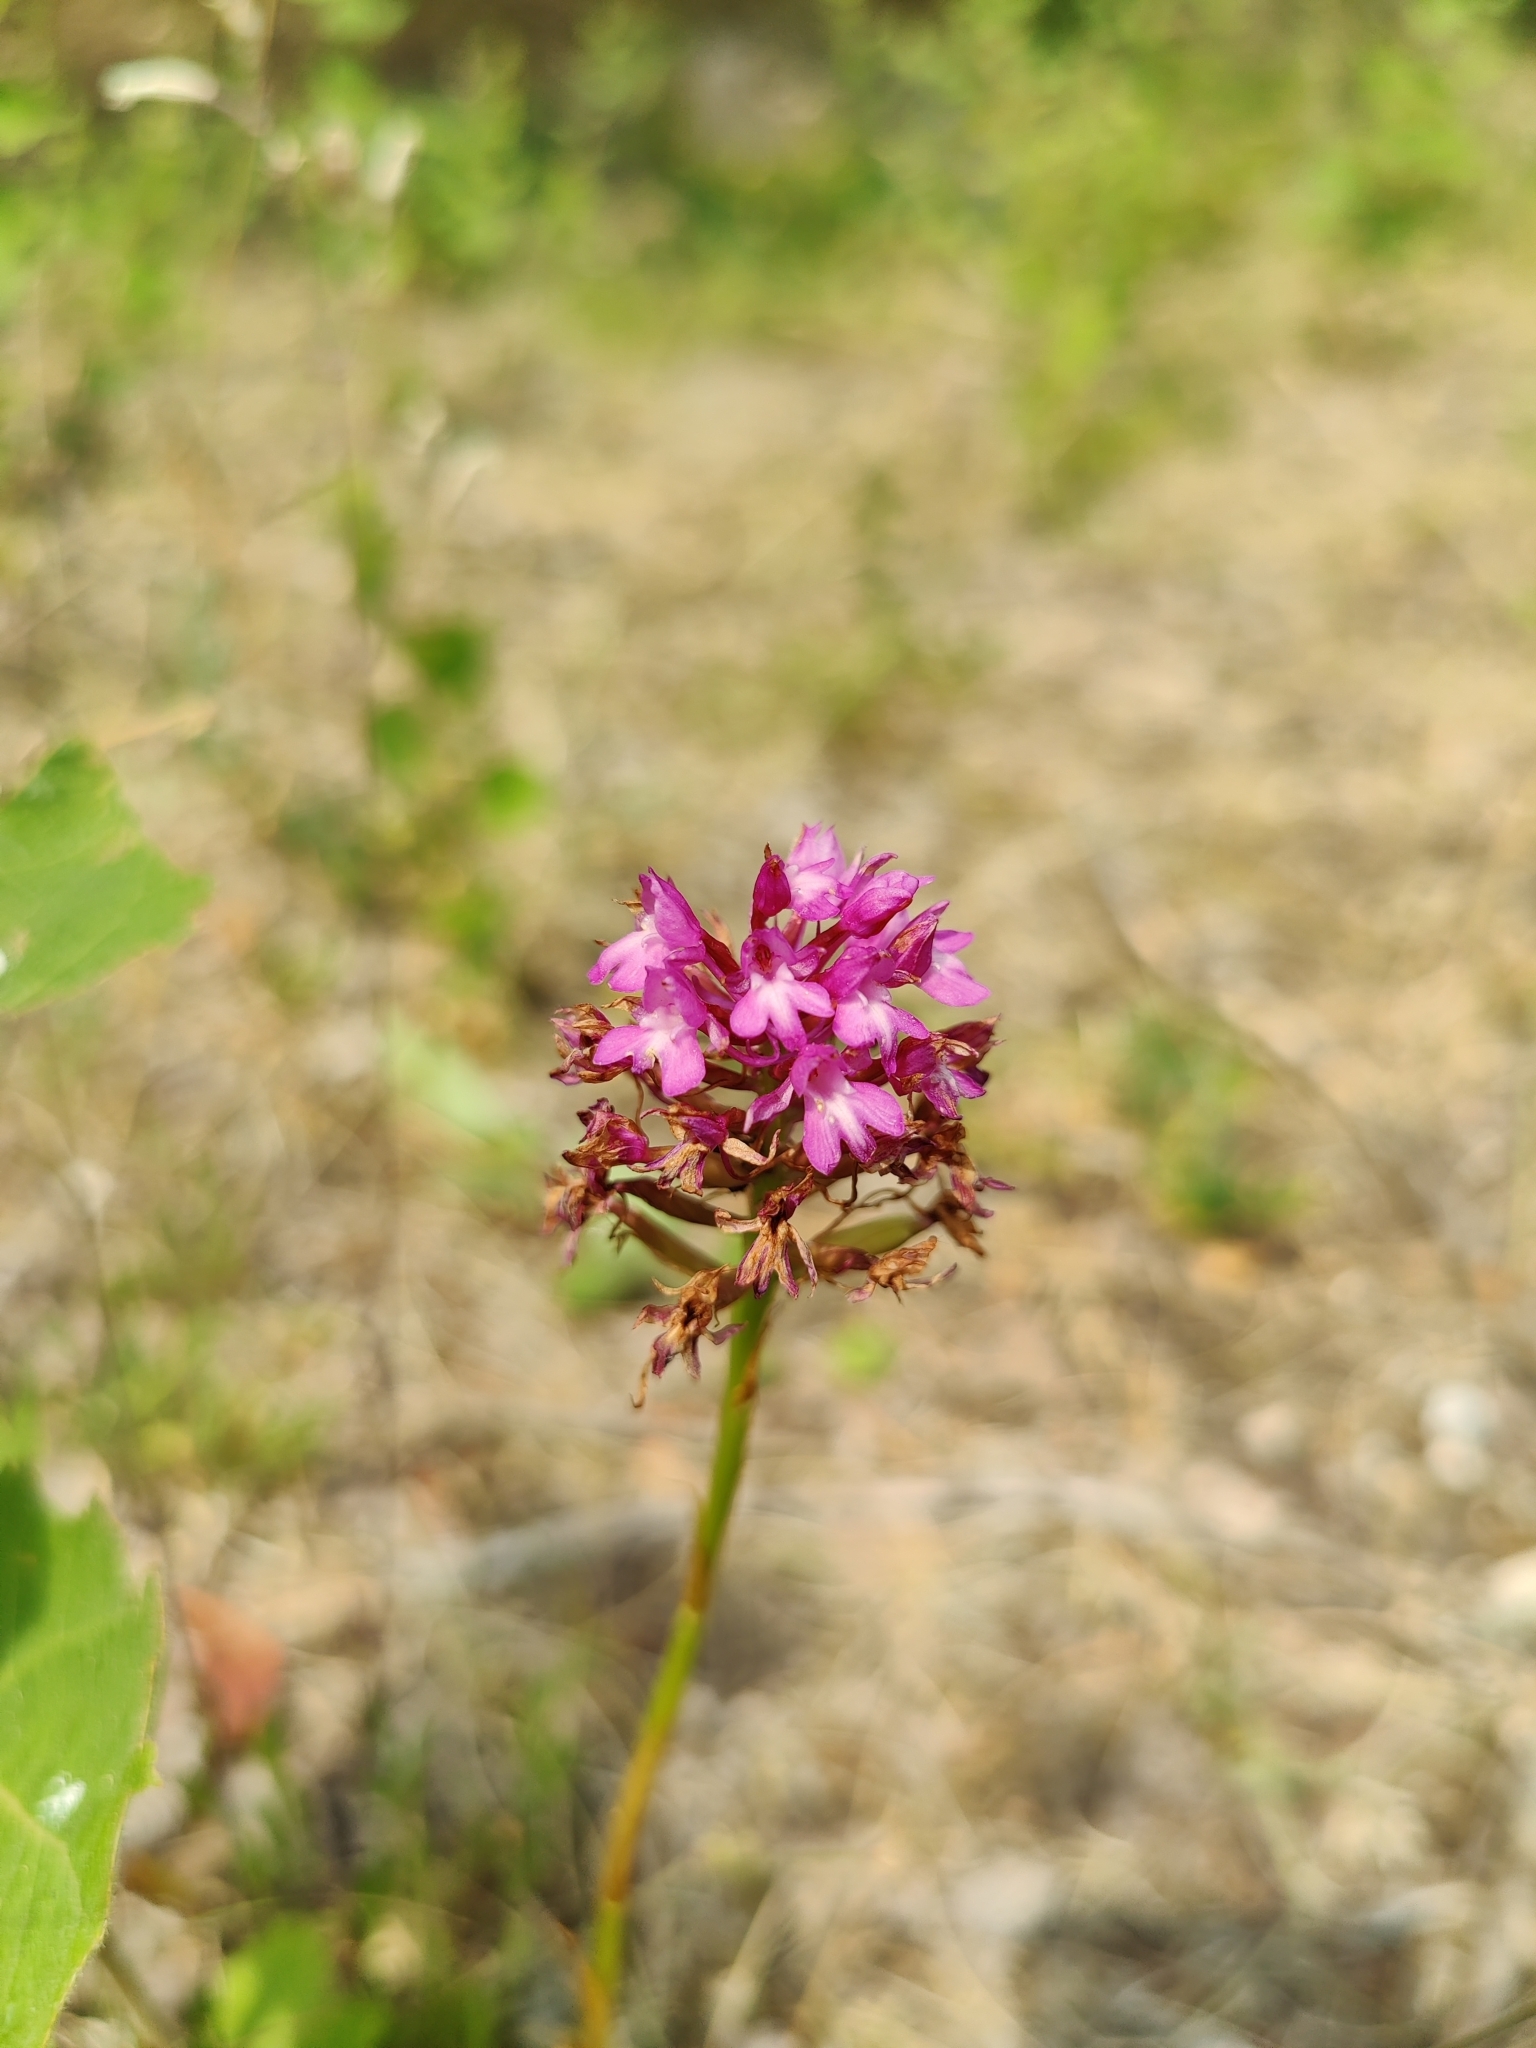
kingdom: Plantae
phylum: Tracheophyta
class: Liliopsida
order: Asparagales
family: Orchidaceae
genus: Anacamptis
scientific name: Anacamptis pyramidalis
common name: Pyramidal orchid
